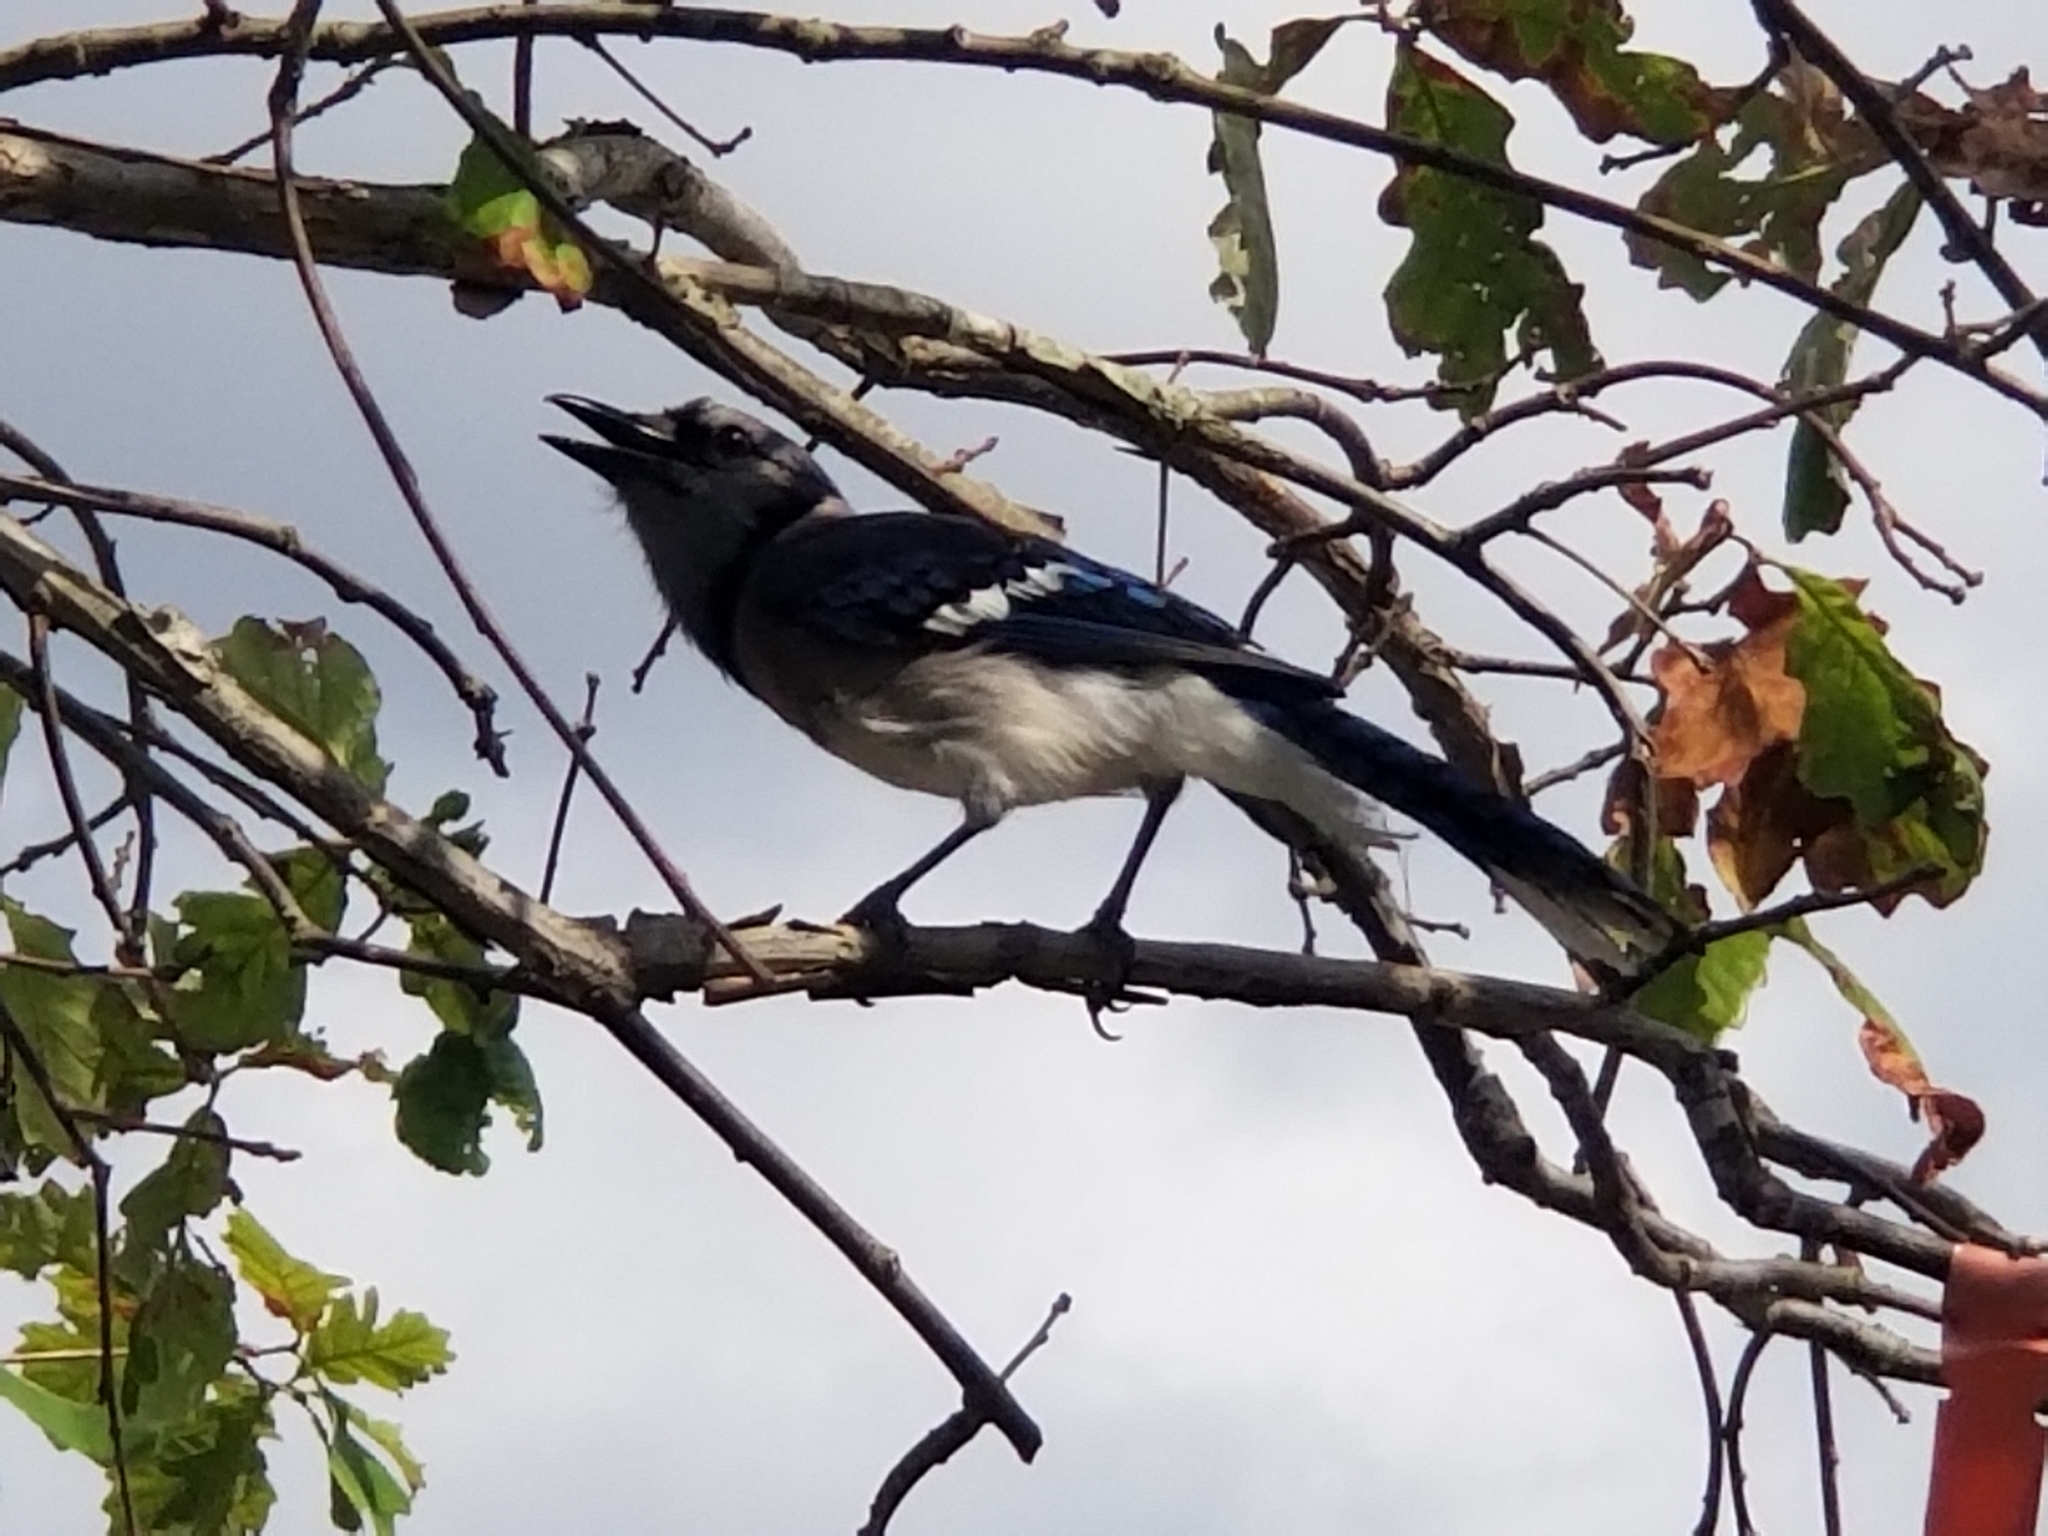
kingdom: Animalia
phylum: Chordata
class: Aves
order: Passeriformes
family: Corvidae
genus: Cyanocitta
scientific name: Cyanocitta cristata
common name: Blue jay
